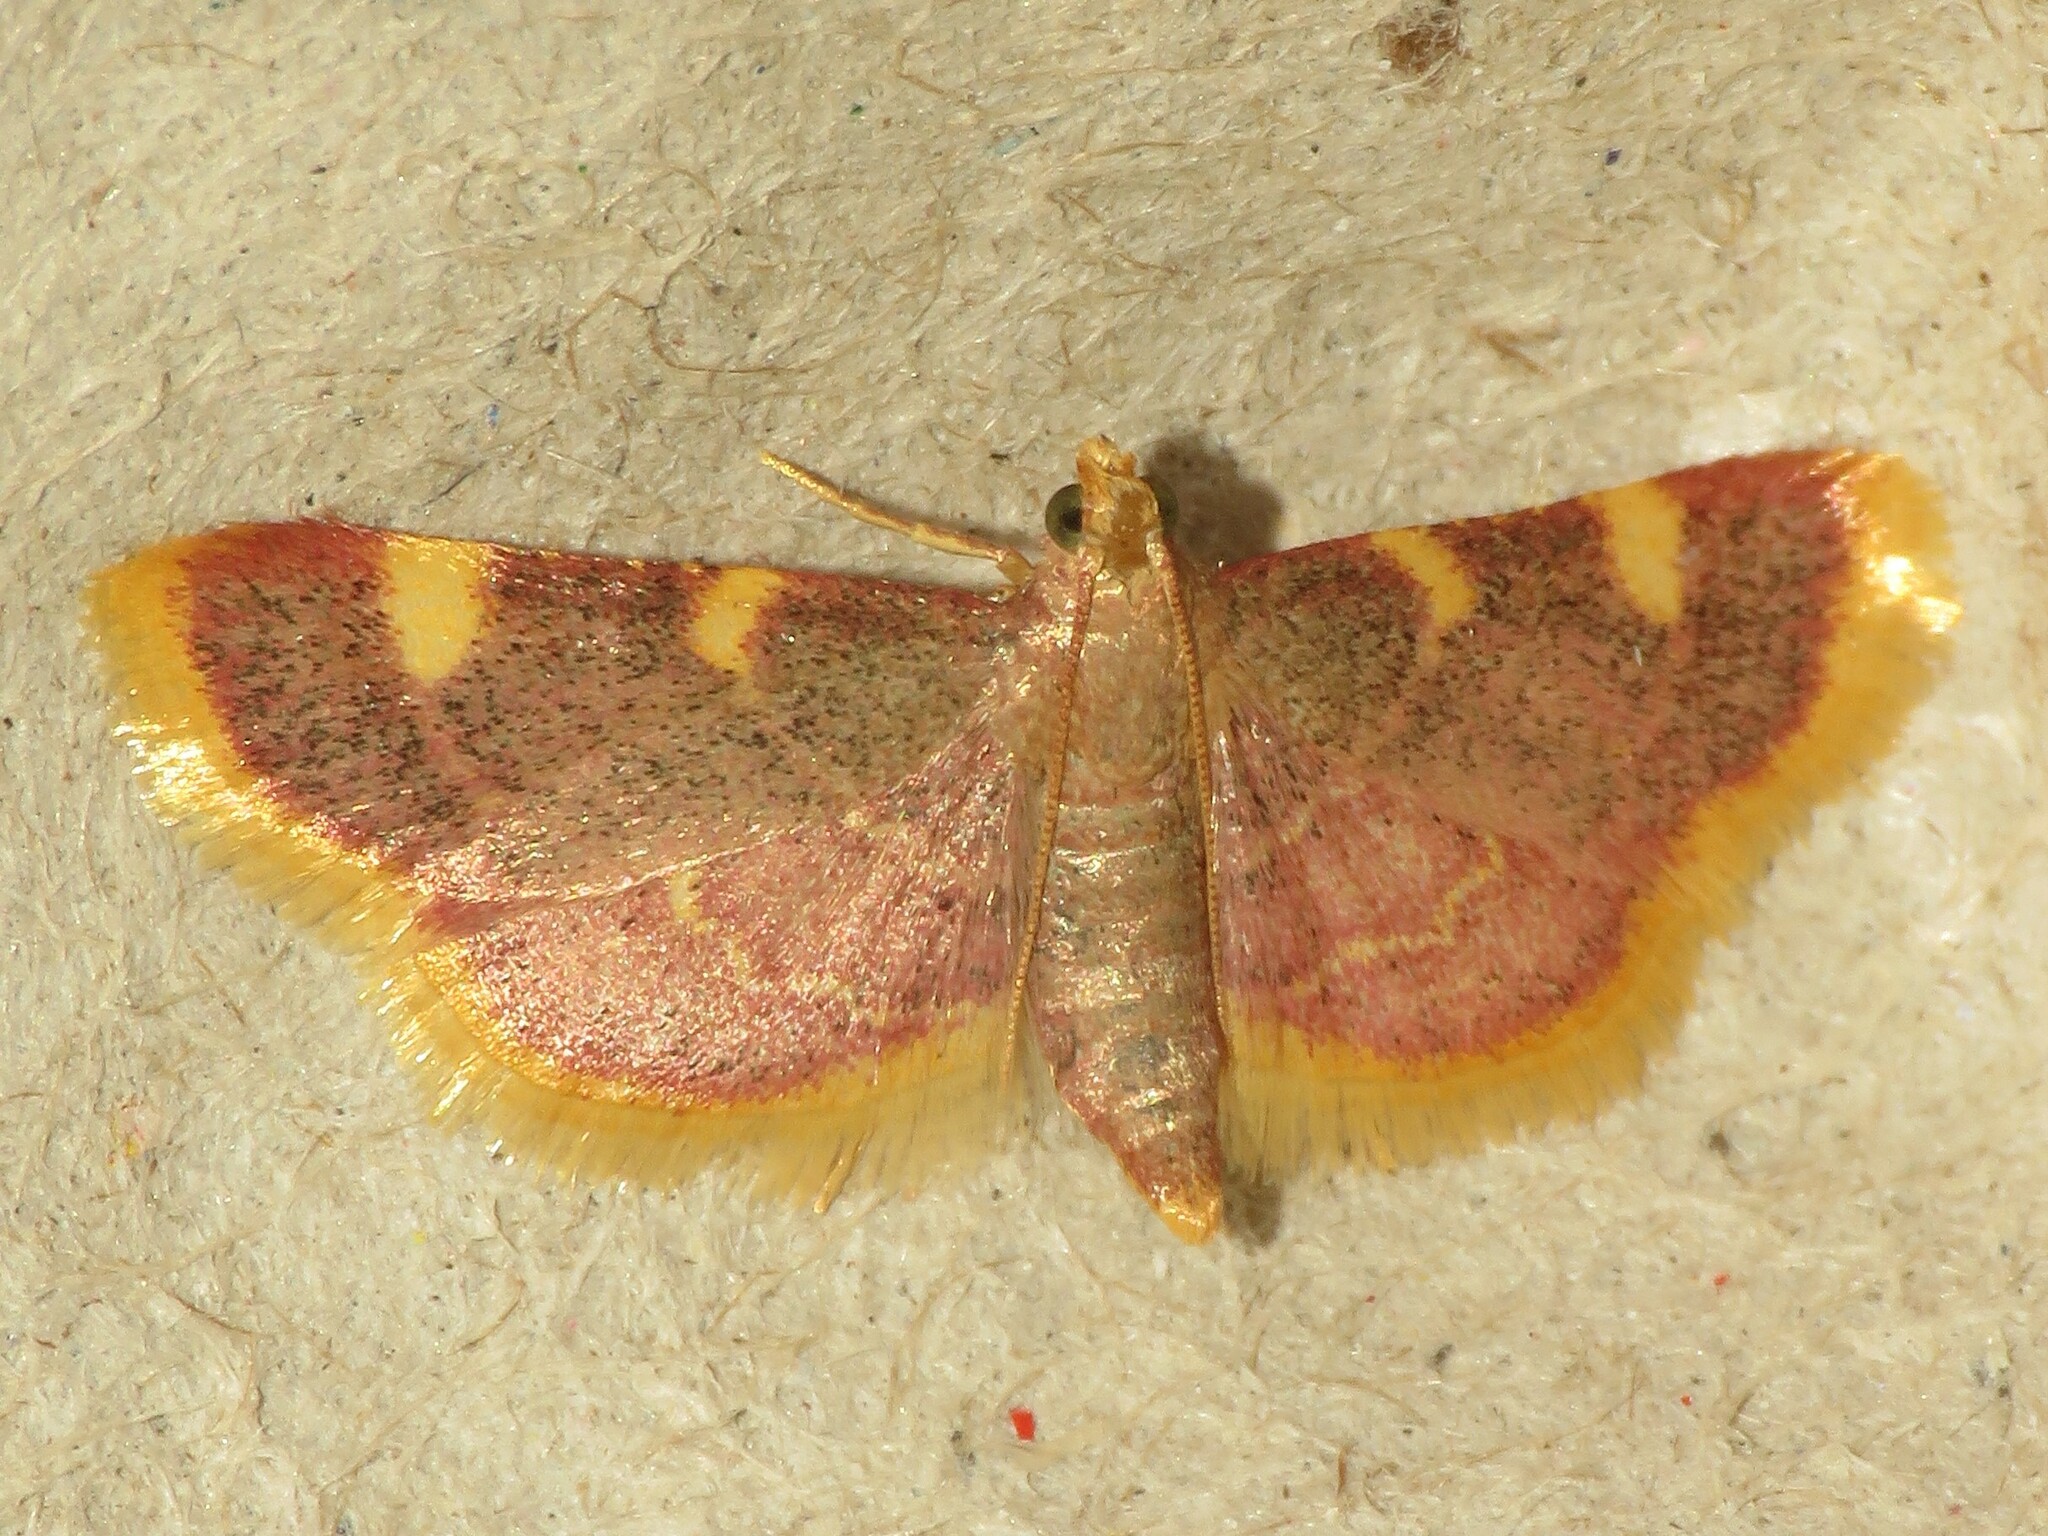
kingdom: Animalia
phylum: Arthropoda
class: Insecta
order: Lepidoptera
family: Pyralidae
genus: Hypsopygia
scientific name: Hypsopygia costalis
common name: Gold triangle
